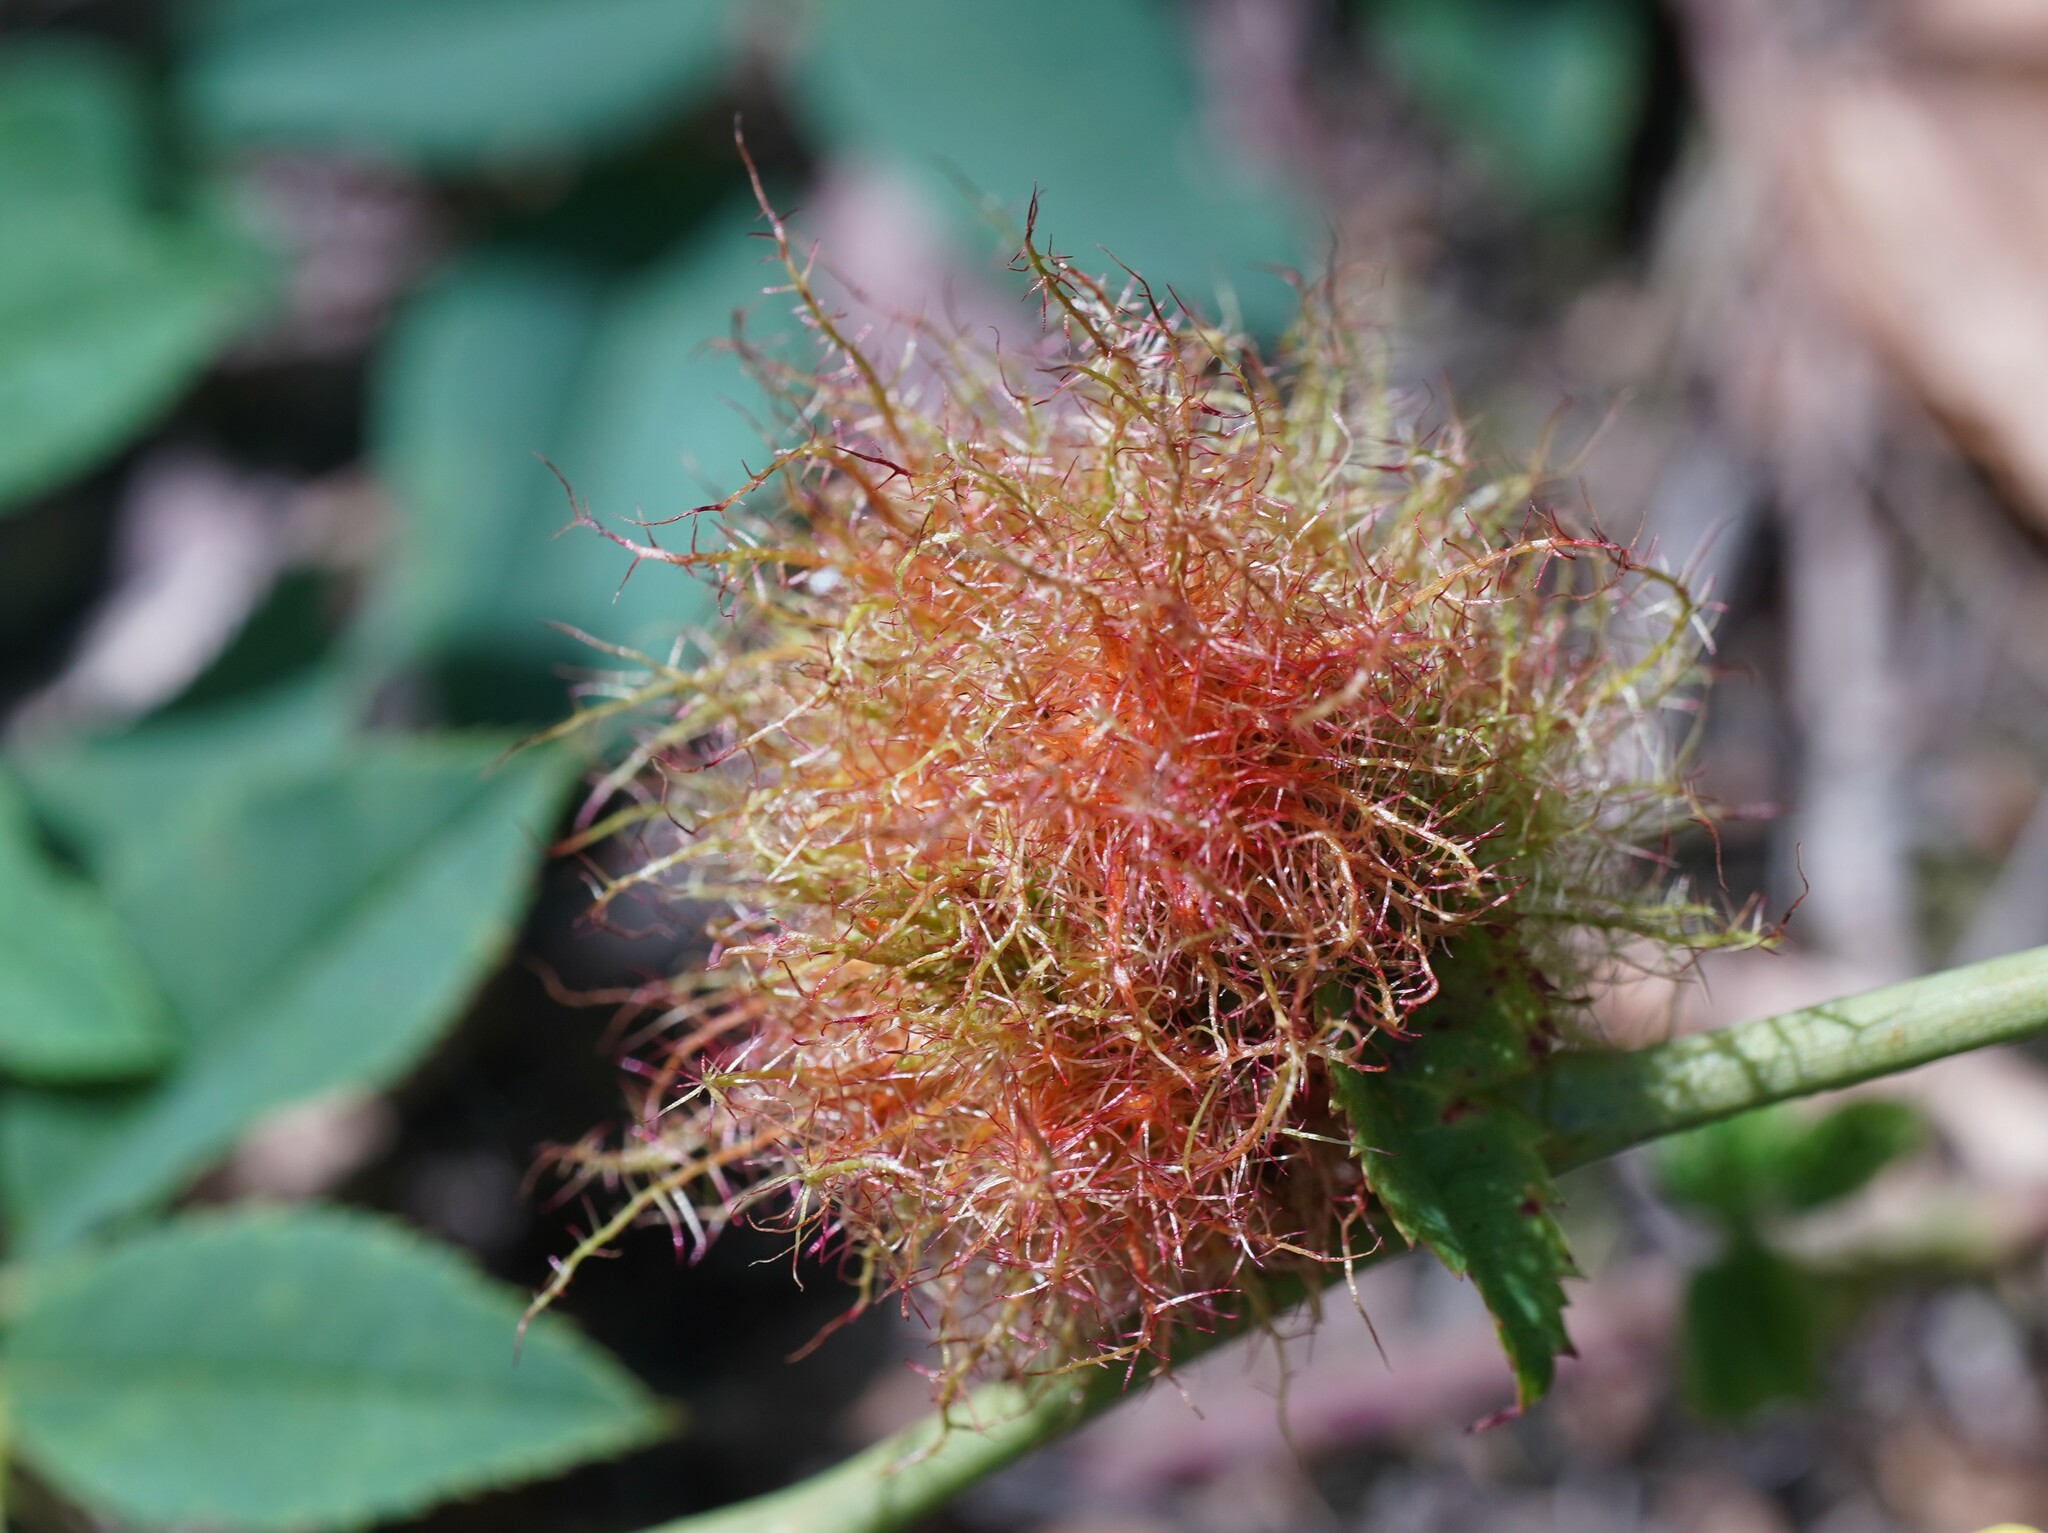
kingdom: Animalia
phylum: Arthropoda
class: Insecta
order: Hymenoptera
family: Cynipidae
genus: Diplolepis
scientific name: Diplolepis rosae
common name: Bedeguar gall
